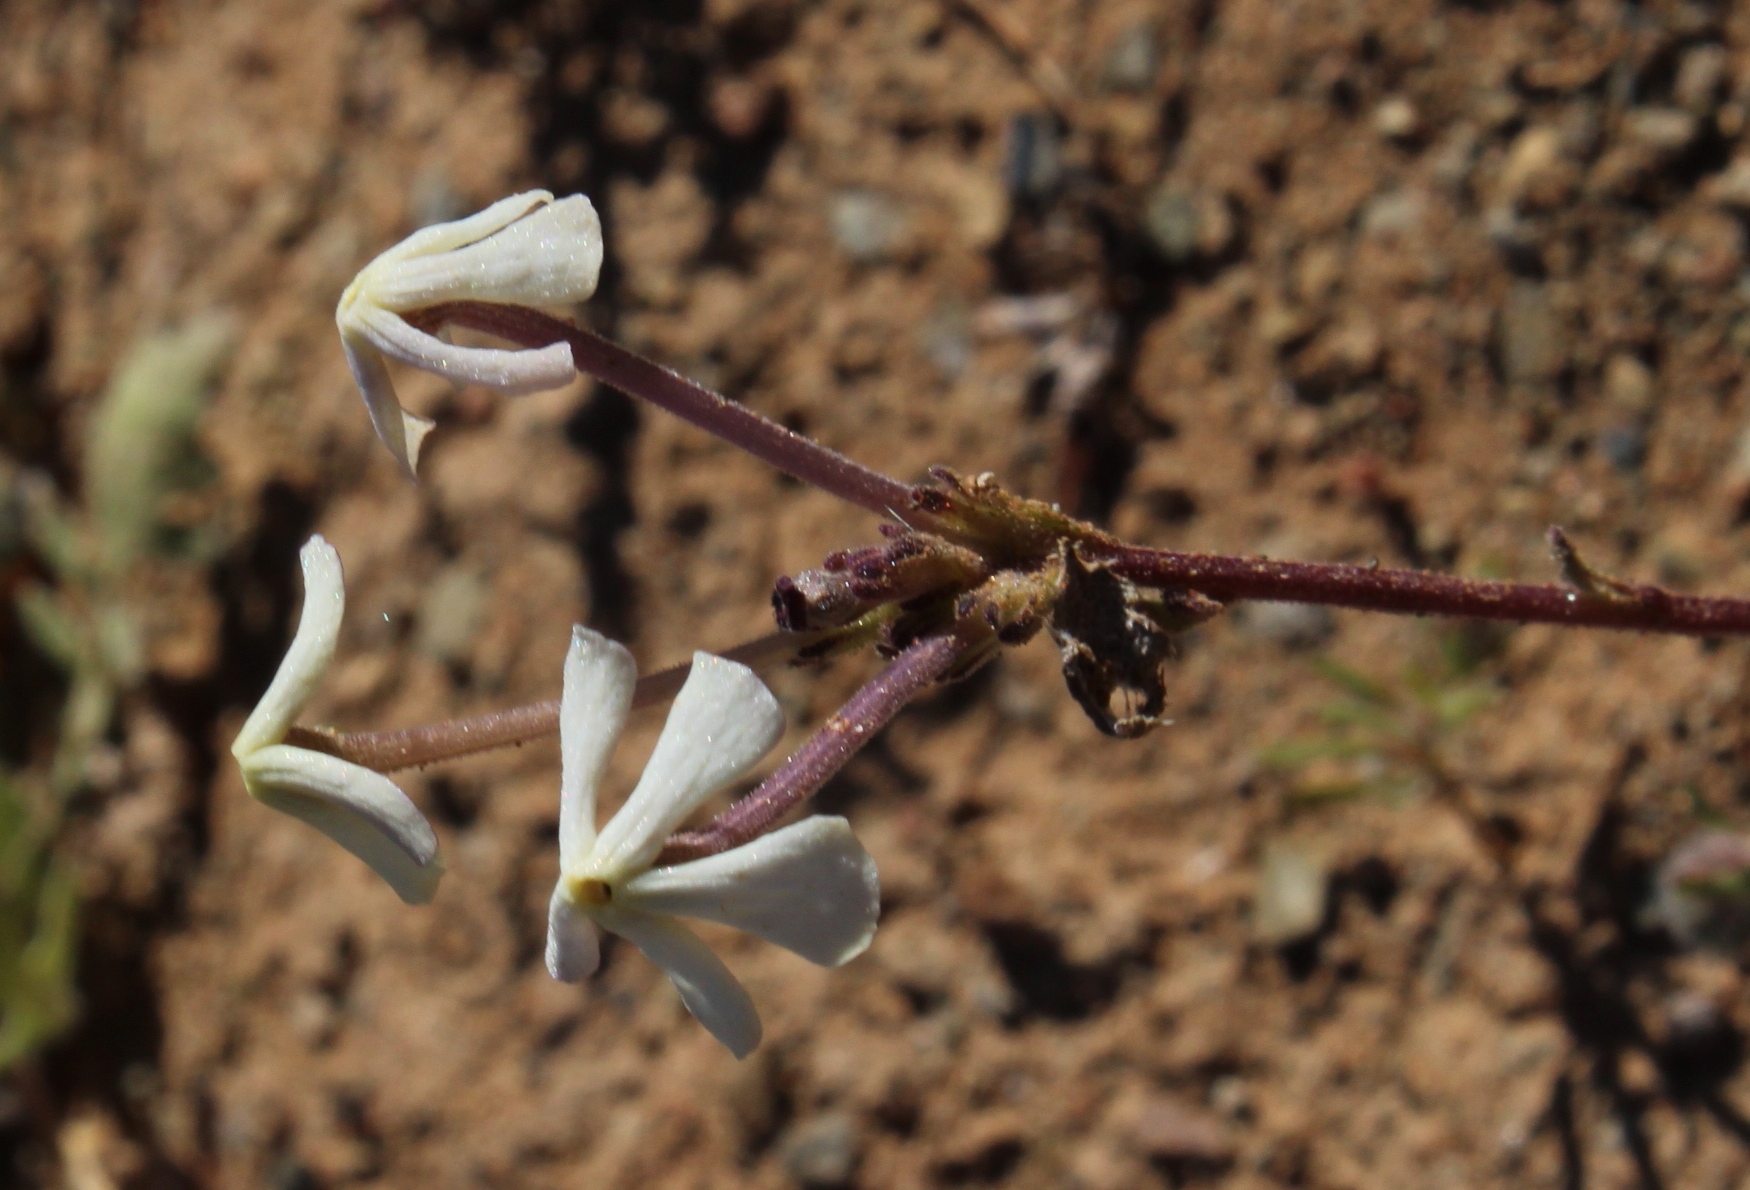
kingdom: Plantae
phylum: Tracheophyta
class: Magnoliopsida
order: Lamiales
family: Scrophulariaceae
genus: Lyperia
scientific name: Lyperia tristis
